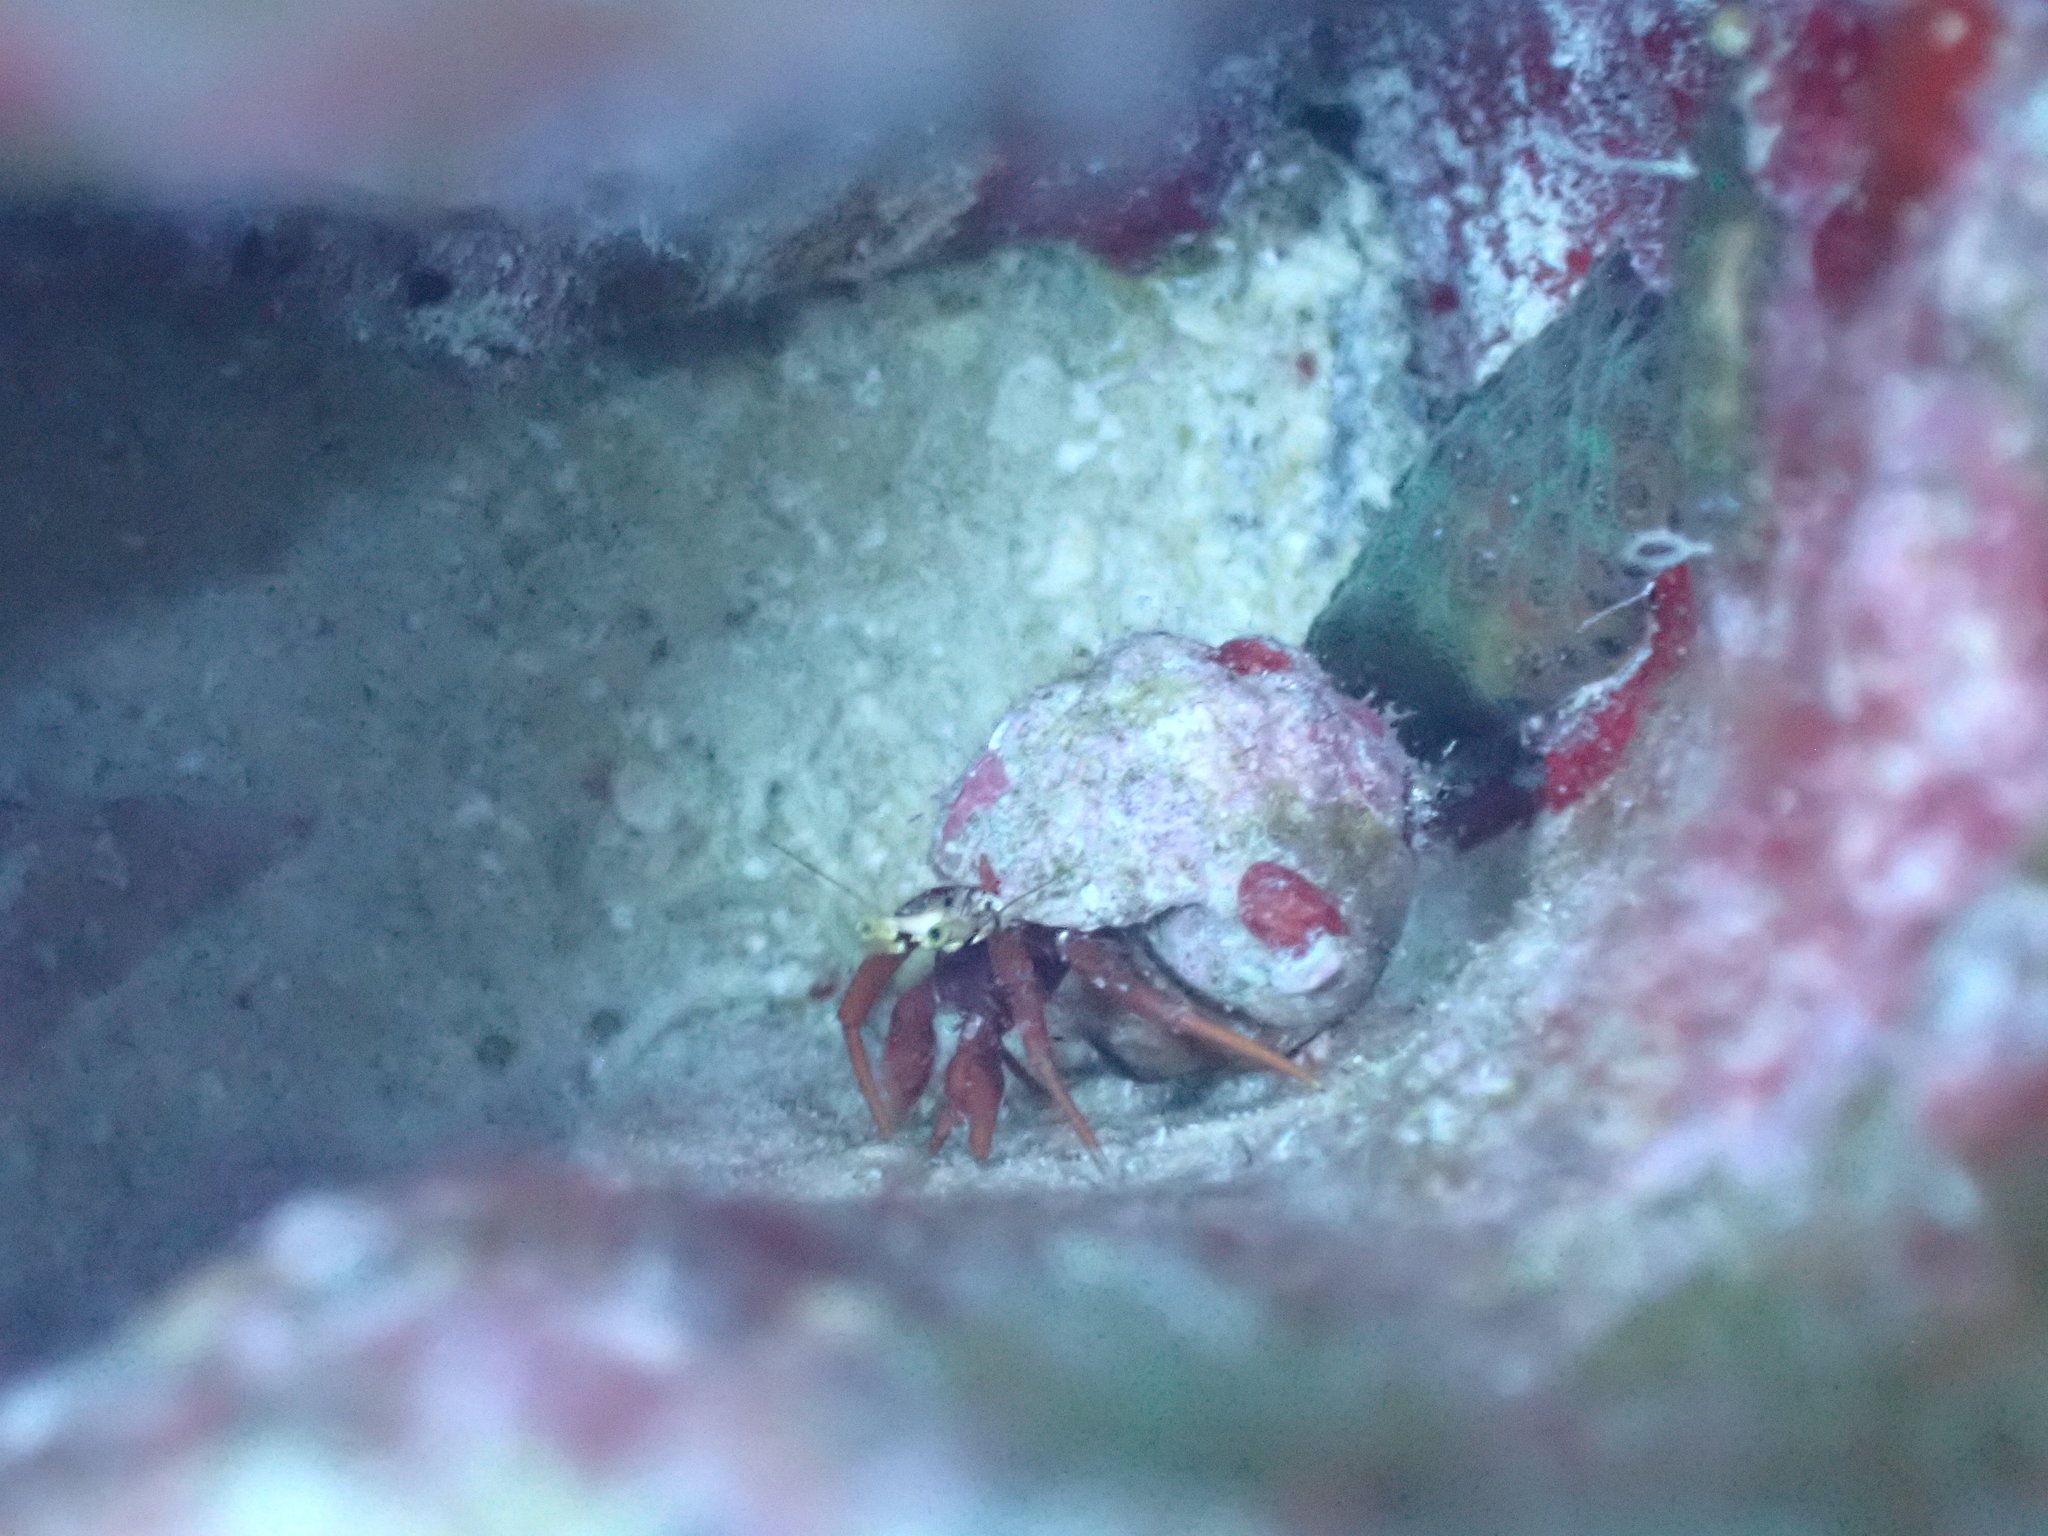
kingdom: Animalia
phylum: Arthropoda
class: Malacostraca
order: Decapoda
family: Diogenidae
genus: Paguristes
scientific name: Paguristes cadenati
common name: Red reef hermit
